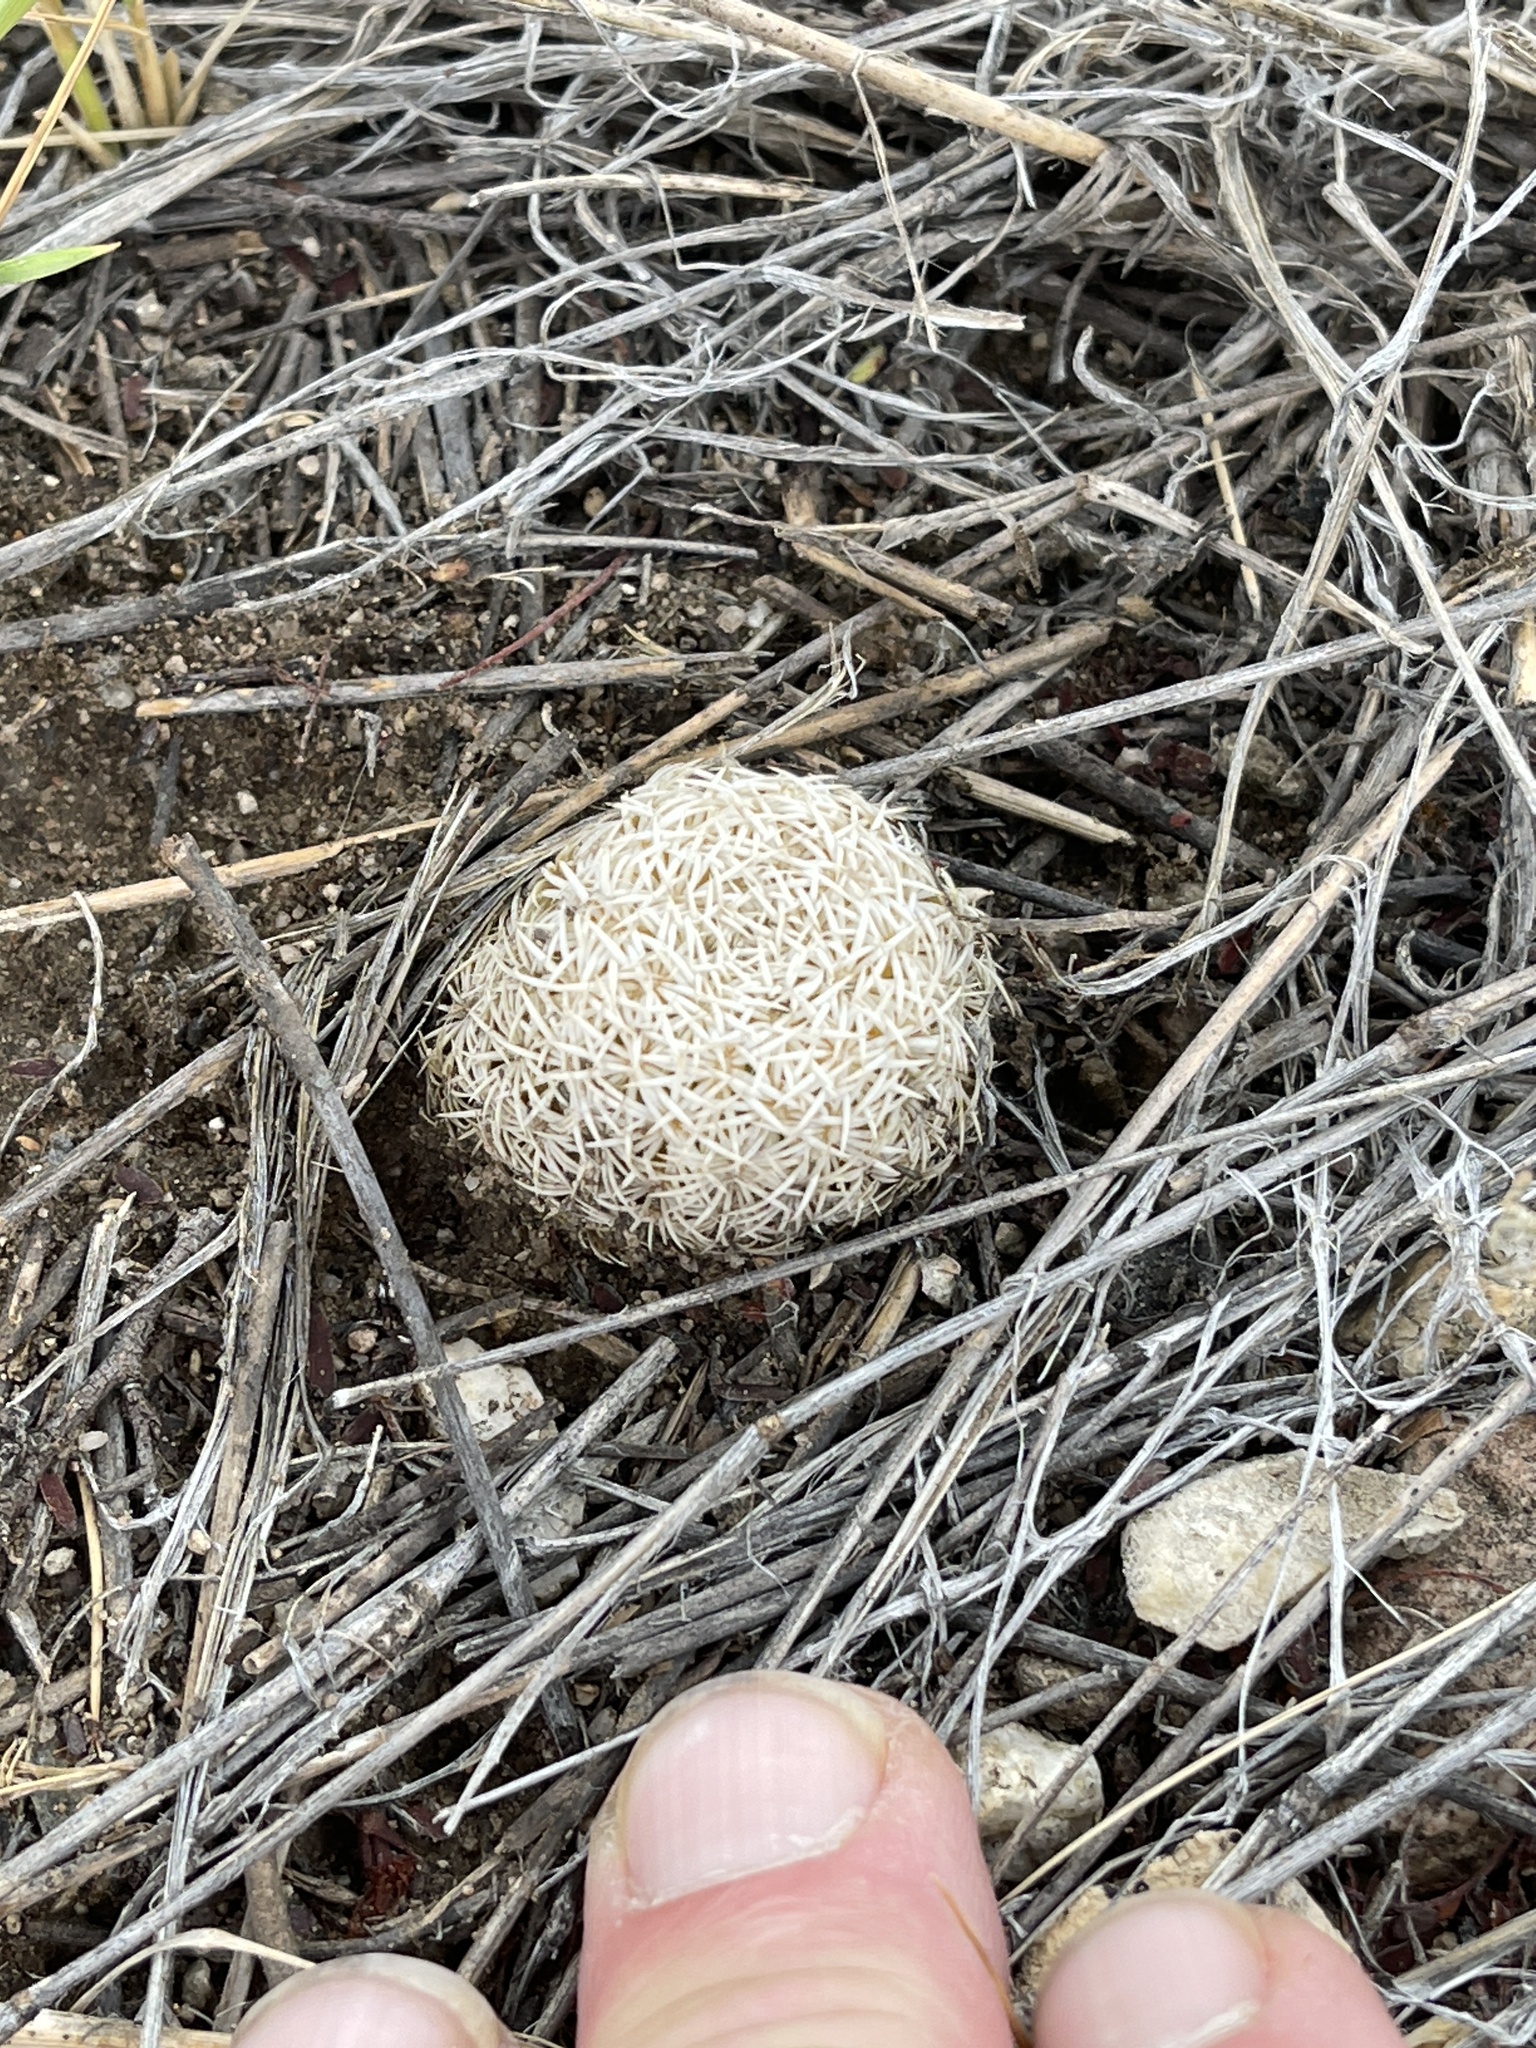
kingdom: Plantae
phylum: Tracheophyta
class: Magnoliopsida
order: Caryophyllales
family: Cactaceae
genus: Sclerocactus
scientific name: Sclerocactus johnsonii
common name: Eight-spine fishhook cactus
